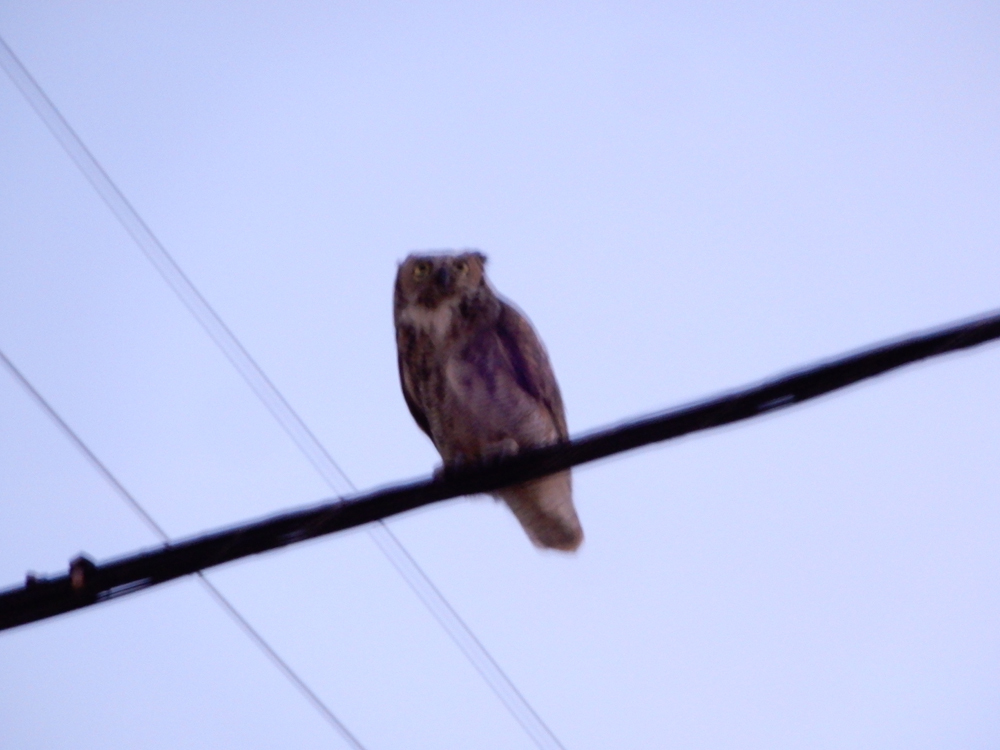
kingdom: Animalia
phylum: Chordata
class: Aves
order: Strigiformes
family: Strigidae
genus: Bubo
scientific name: Bubo virginianus
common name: Great horned owl
